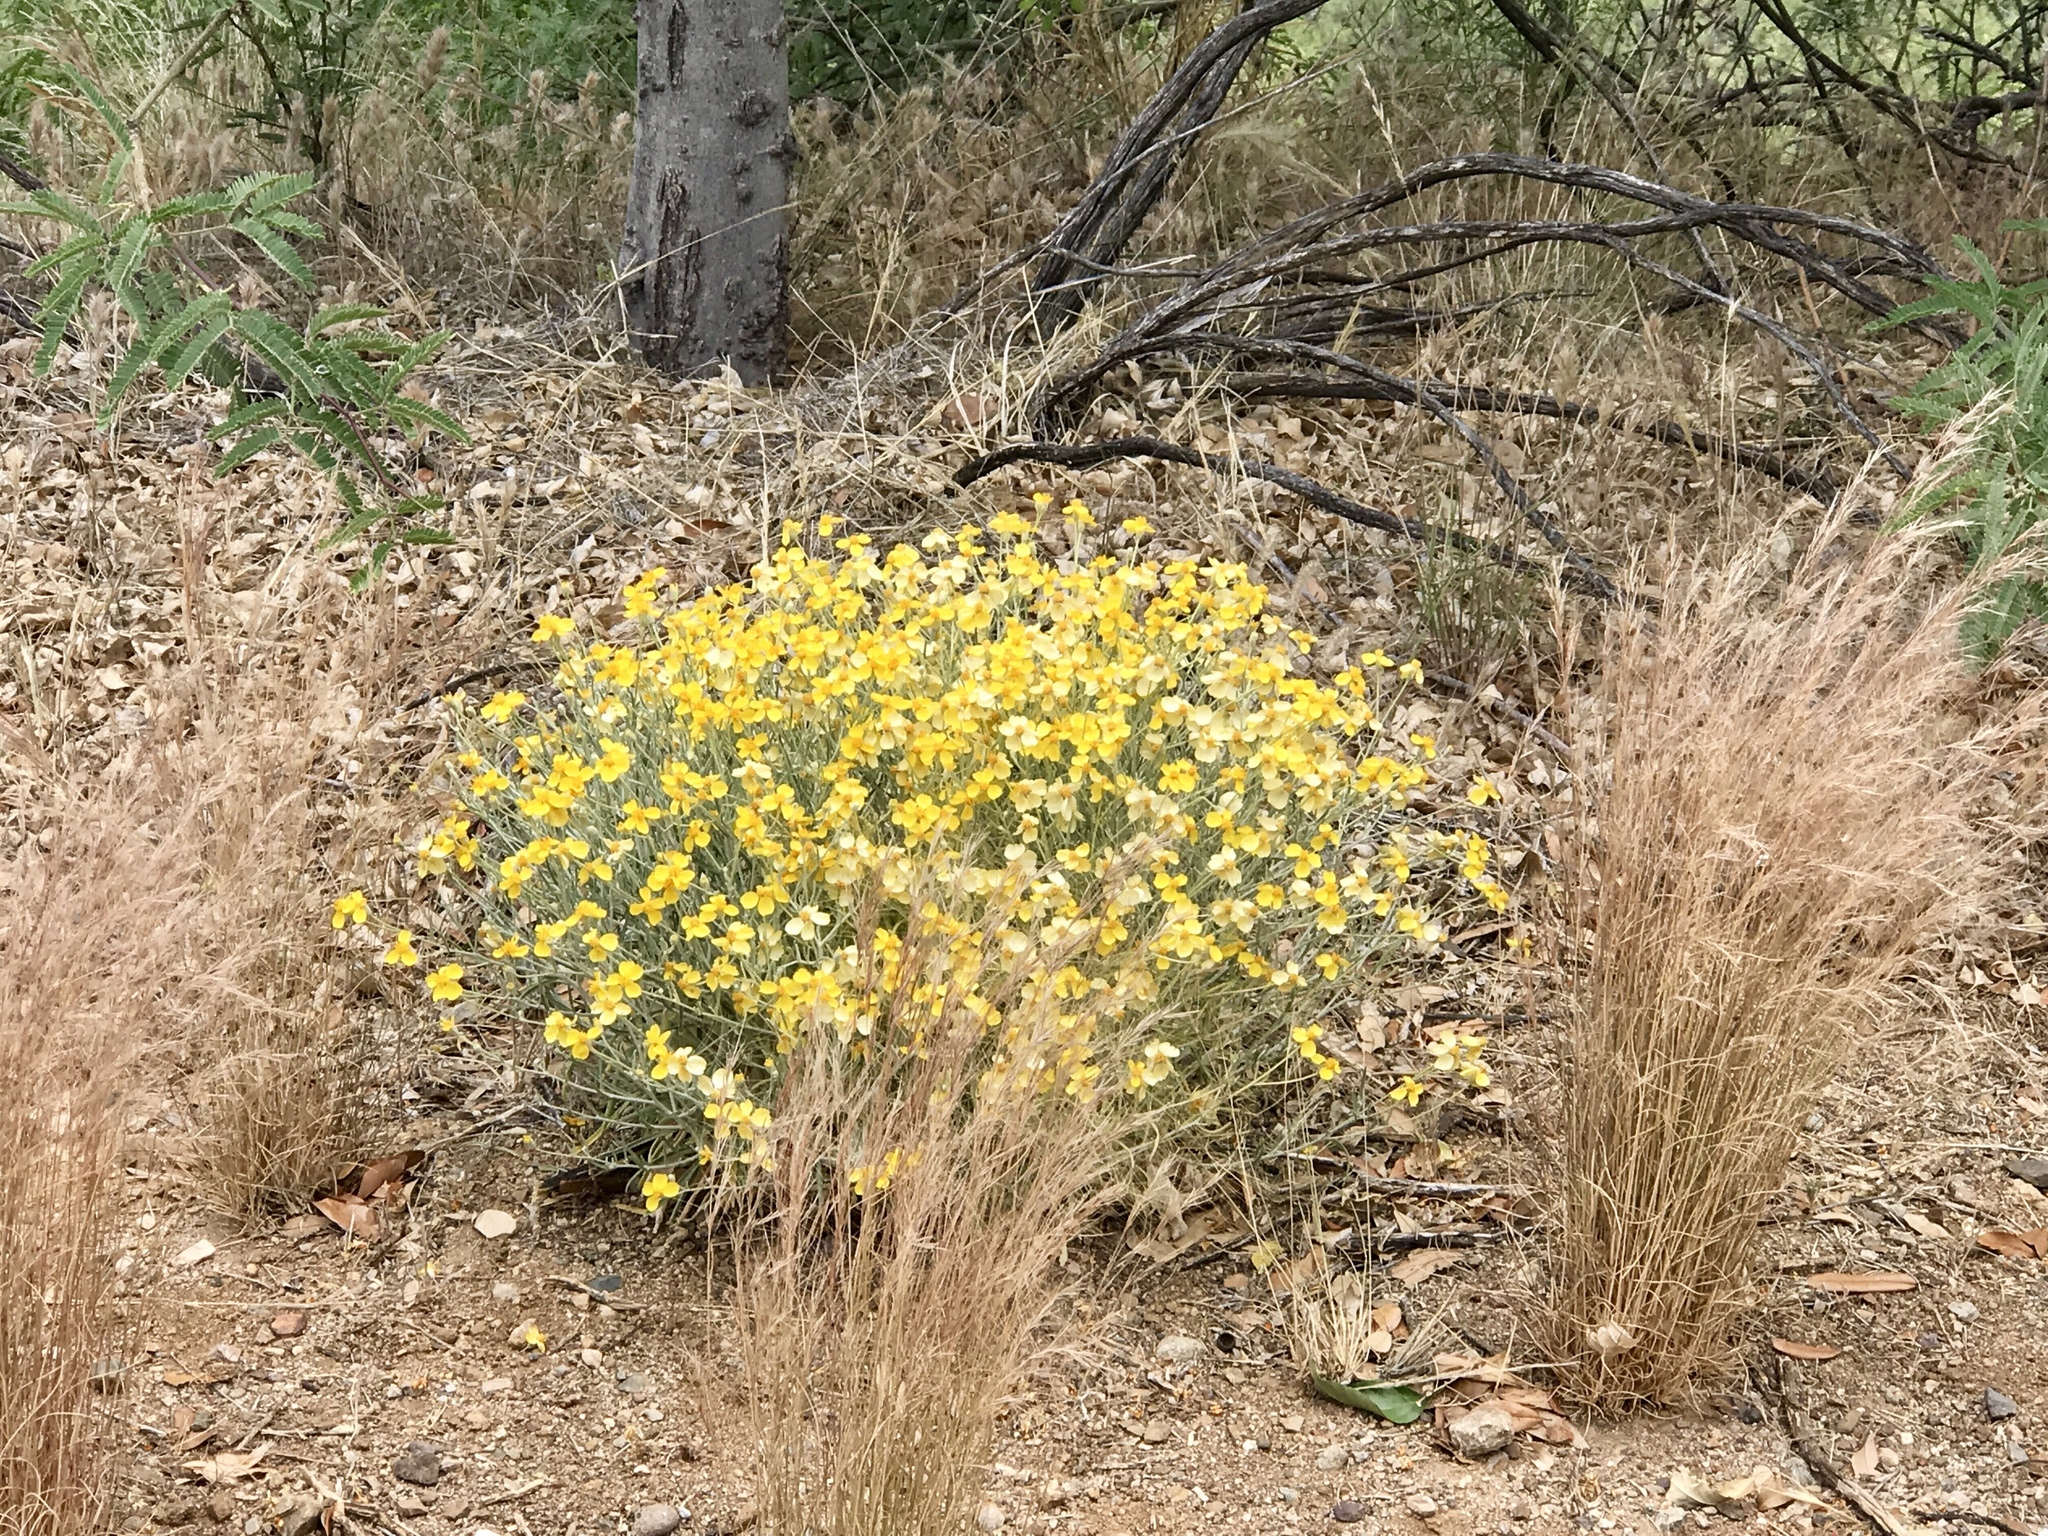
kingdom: Plantae
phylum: Tracheophyta
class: Magnoliopsida
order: Asterales
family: Asteraceae
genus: Psilostrophe
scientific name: Psilostrophe cooperi
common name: White-stem paper-flower
